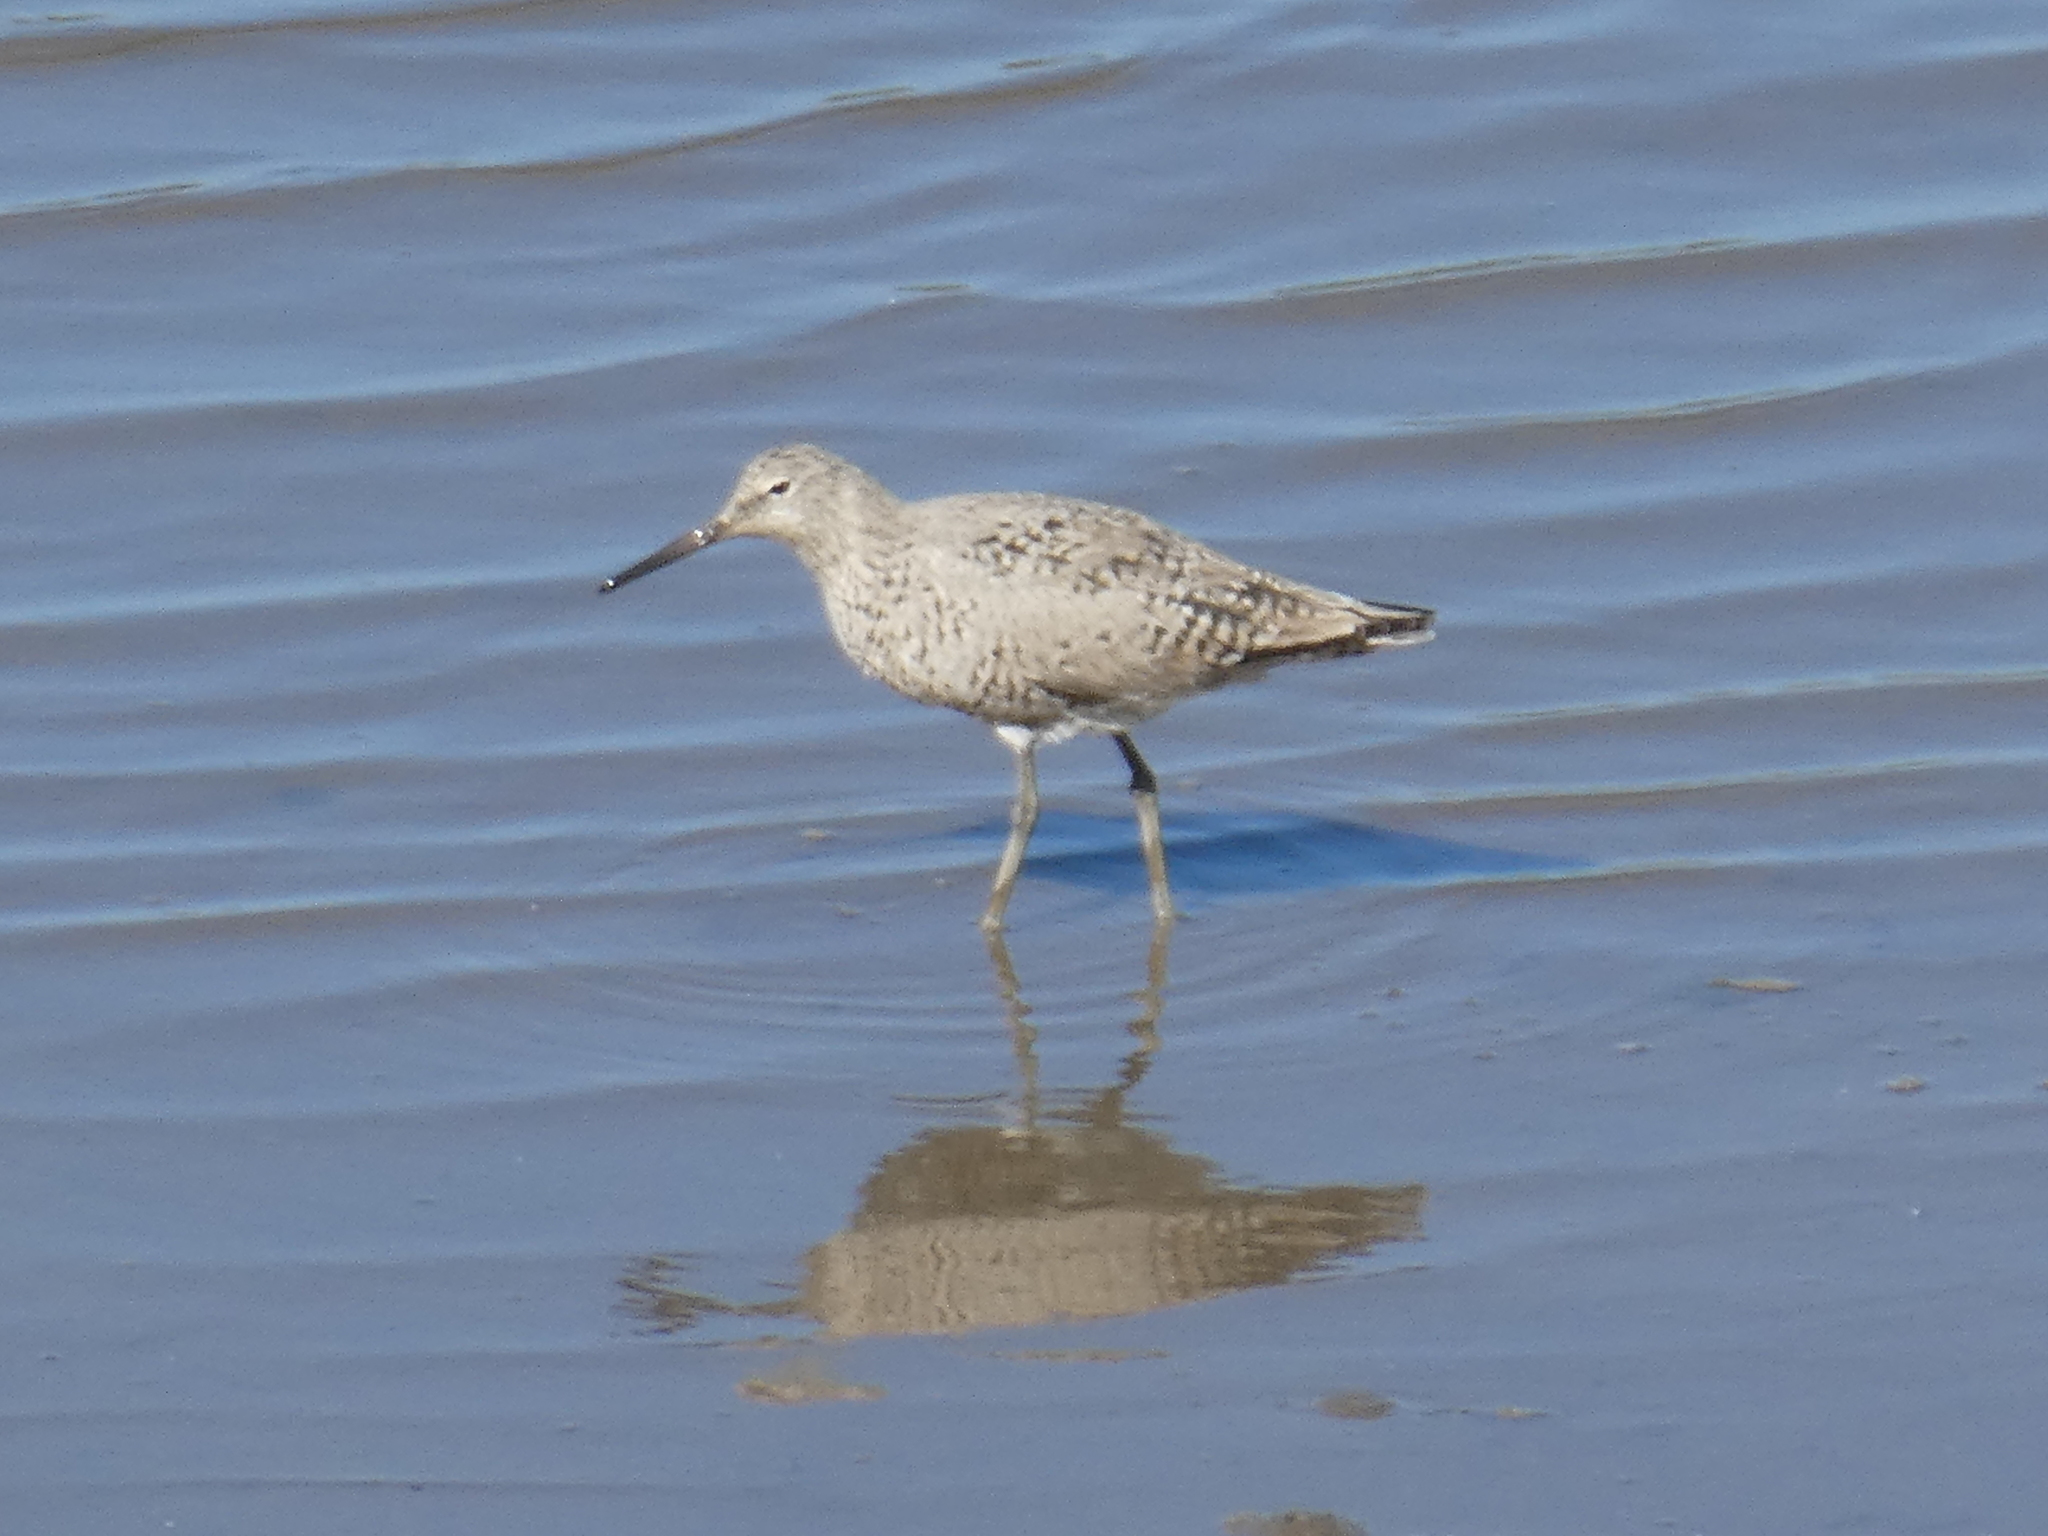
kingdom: Animalia
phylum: Chordata
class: Aves
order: Charadriiformes
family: Scolopacidae
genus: Tringa
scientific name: Tringa semipalmata
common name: Willet
